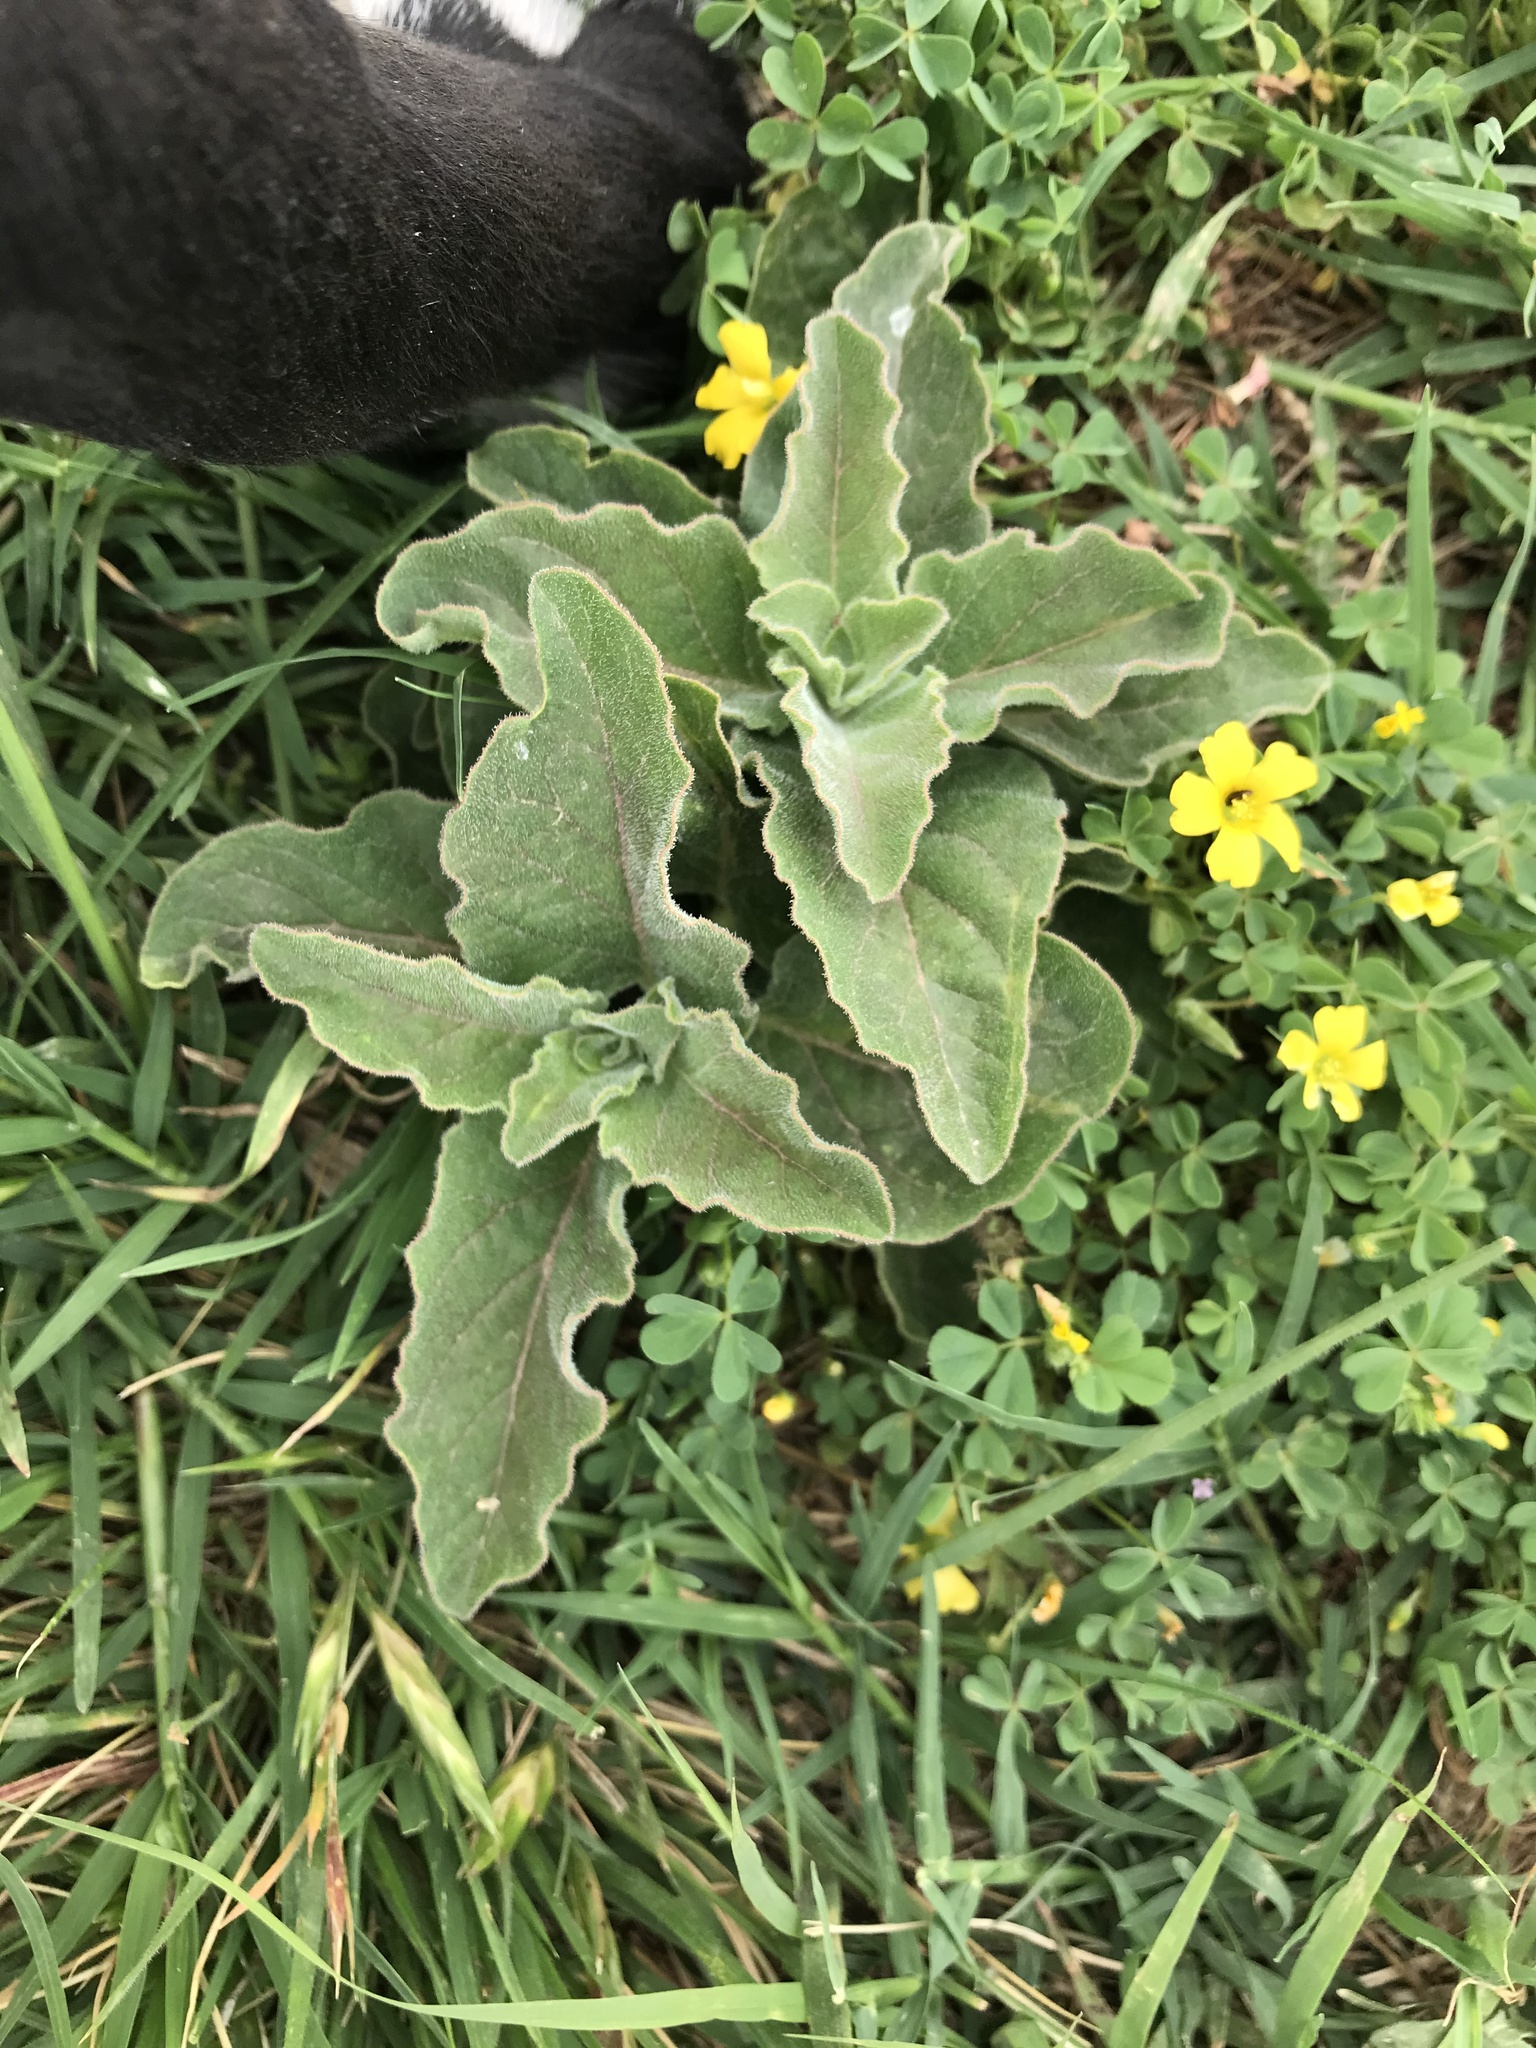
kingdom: Plantae
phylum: Tracheophyta
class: Magnoliopsida
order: Gentianales
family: Apocynaceae
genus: Asclepias
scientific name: Asclepias oenotheroides
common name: Zizotes milkweed
